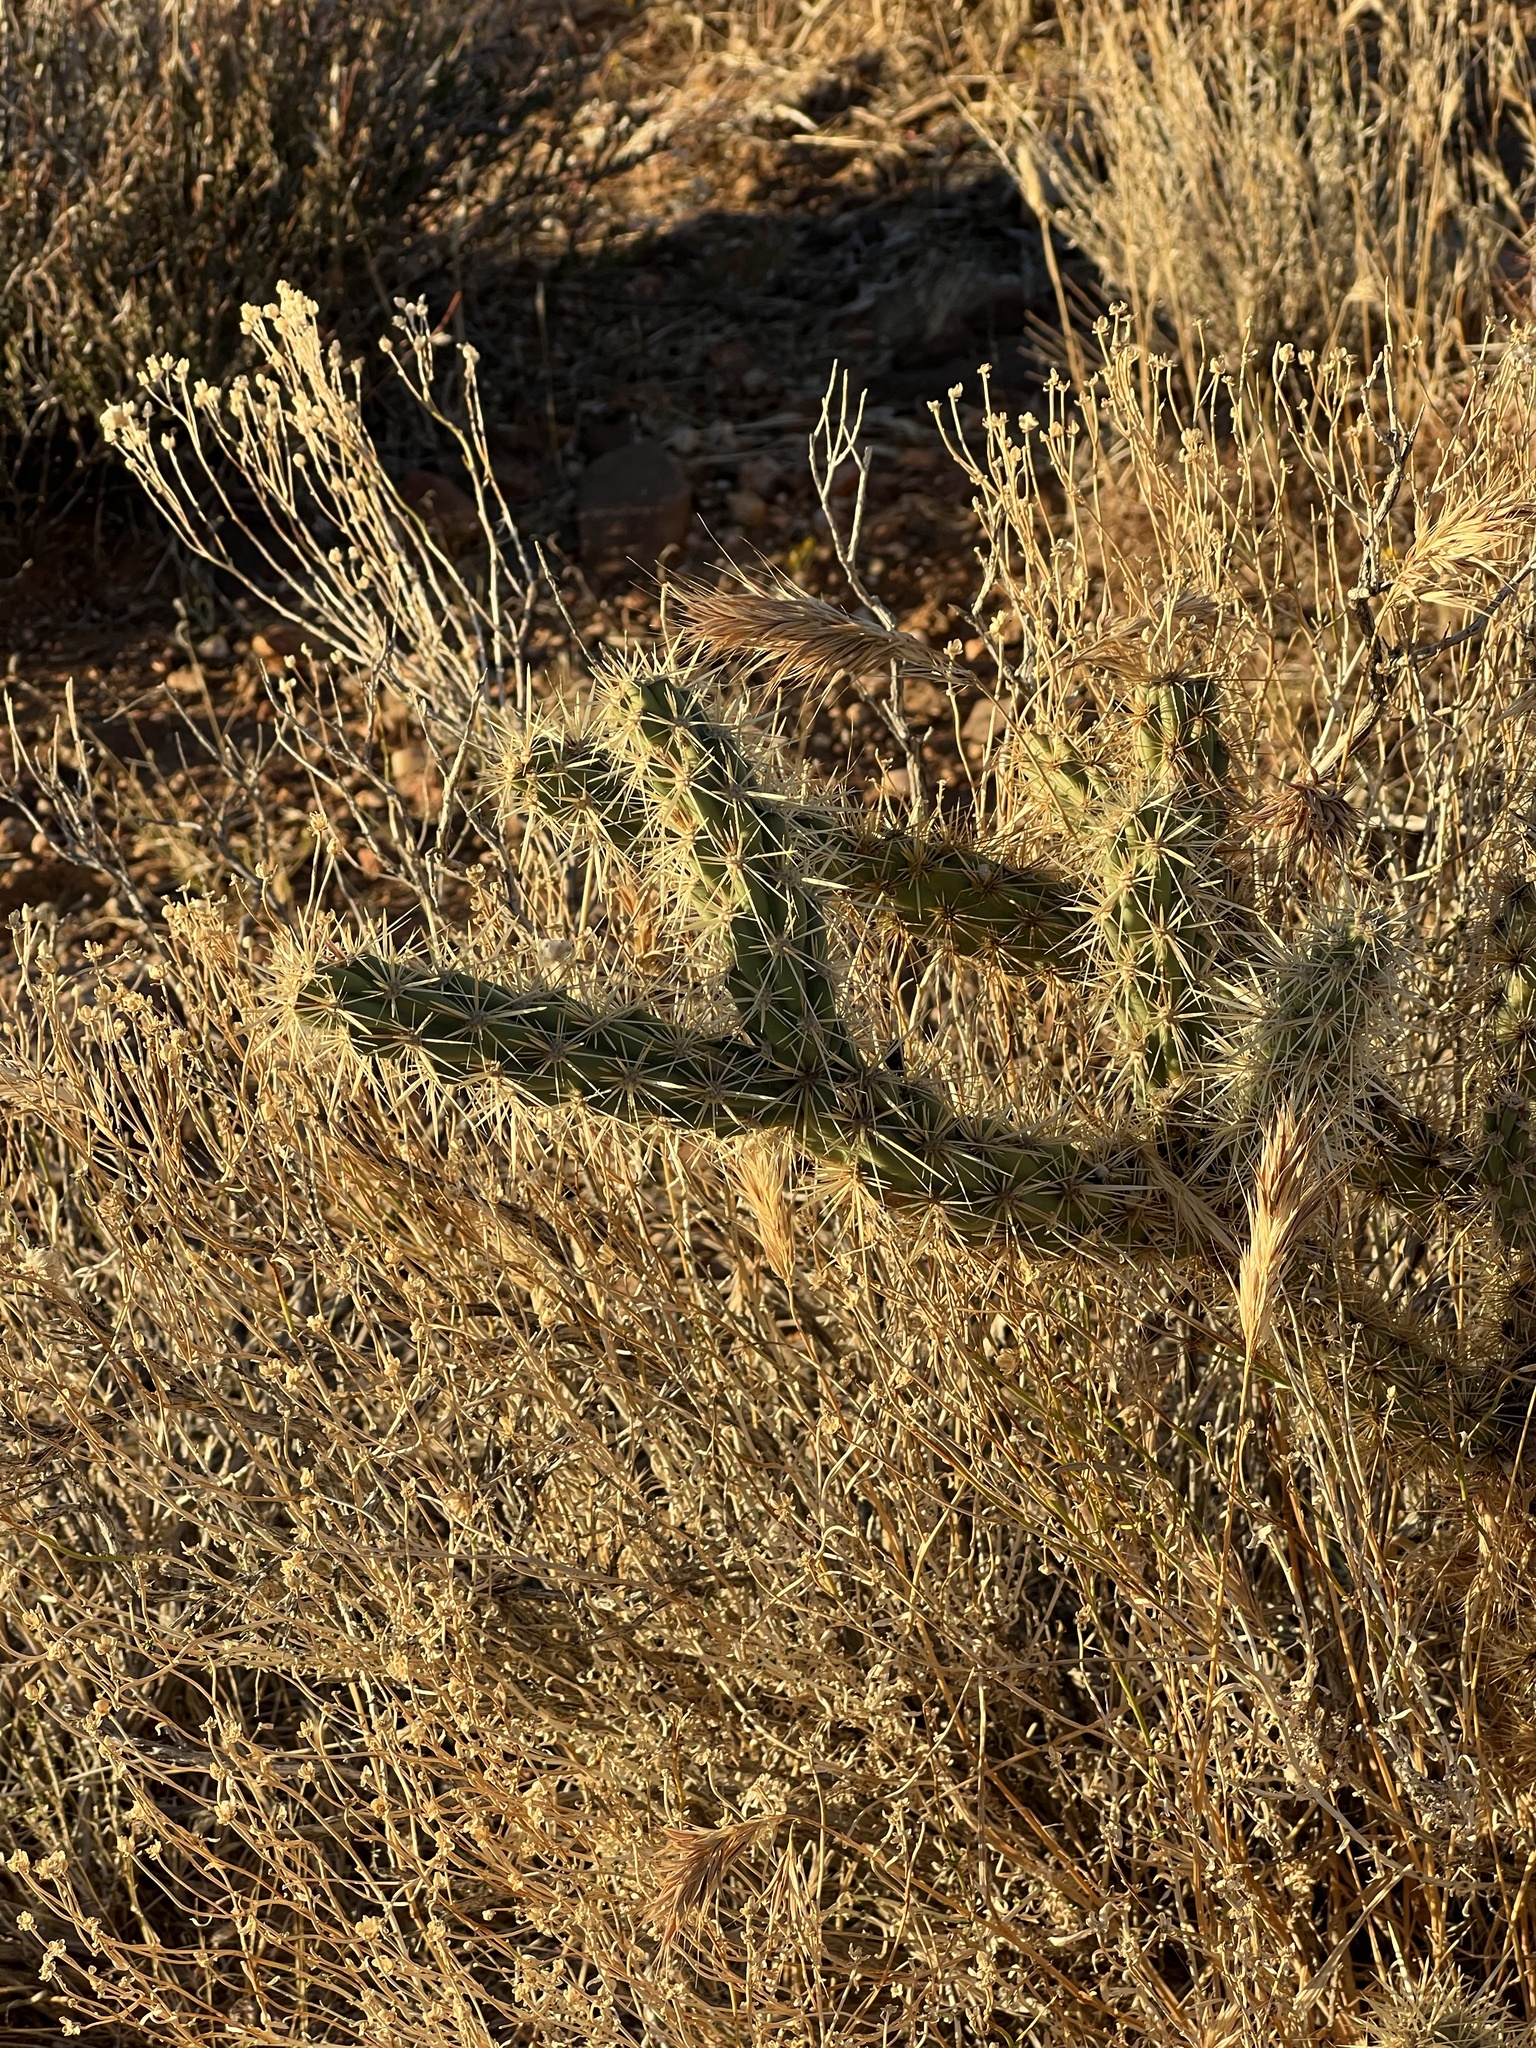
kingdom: Plantae
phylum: Tracheophyta
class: Magnoliopsida
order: Caryophyllales
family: Cactaceae
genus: Cylindropuntia
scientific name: Cylindropuntia acanthocarpa
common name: Buckhorn cholla
